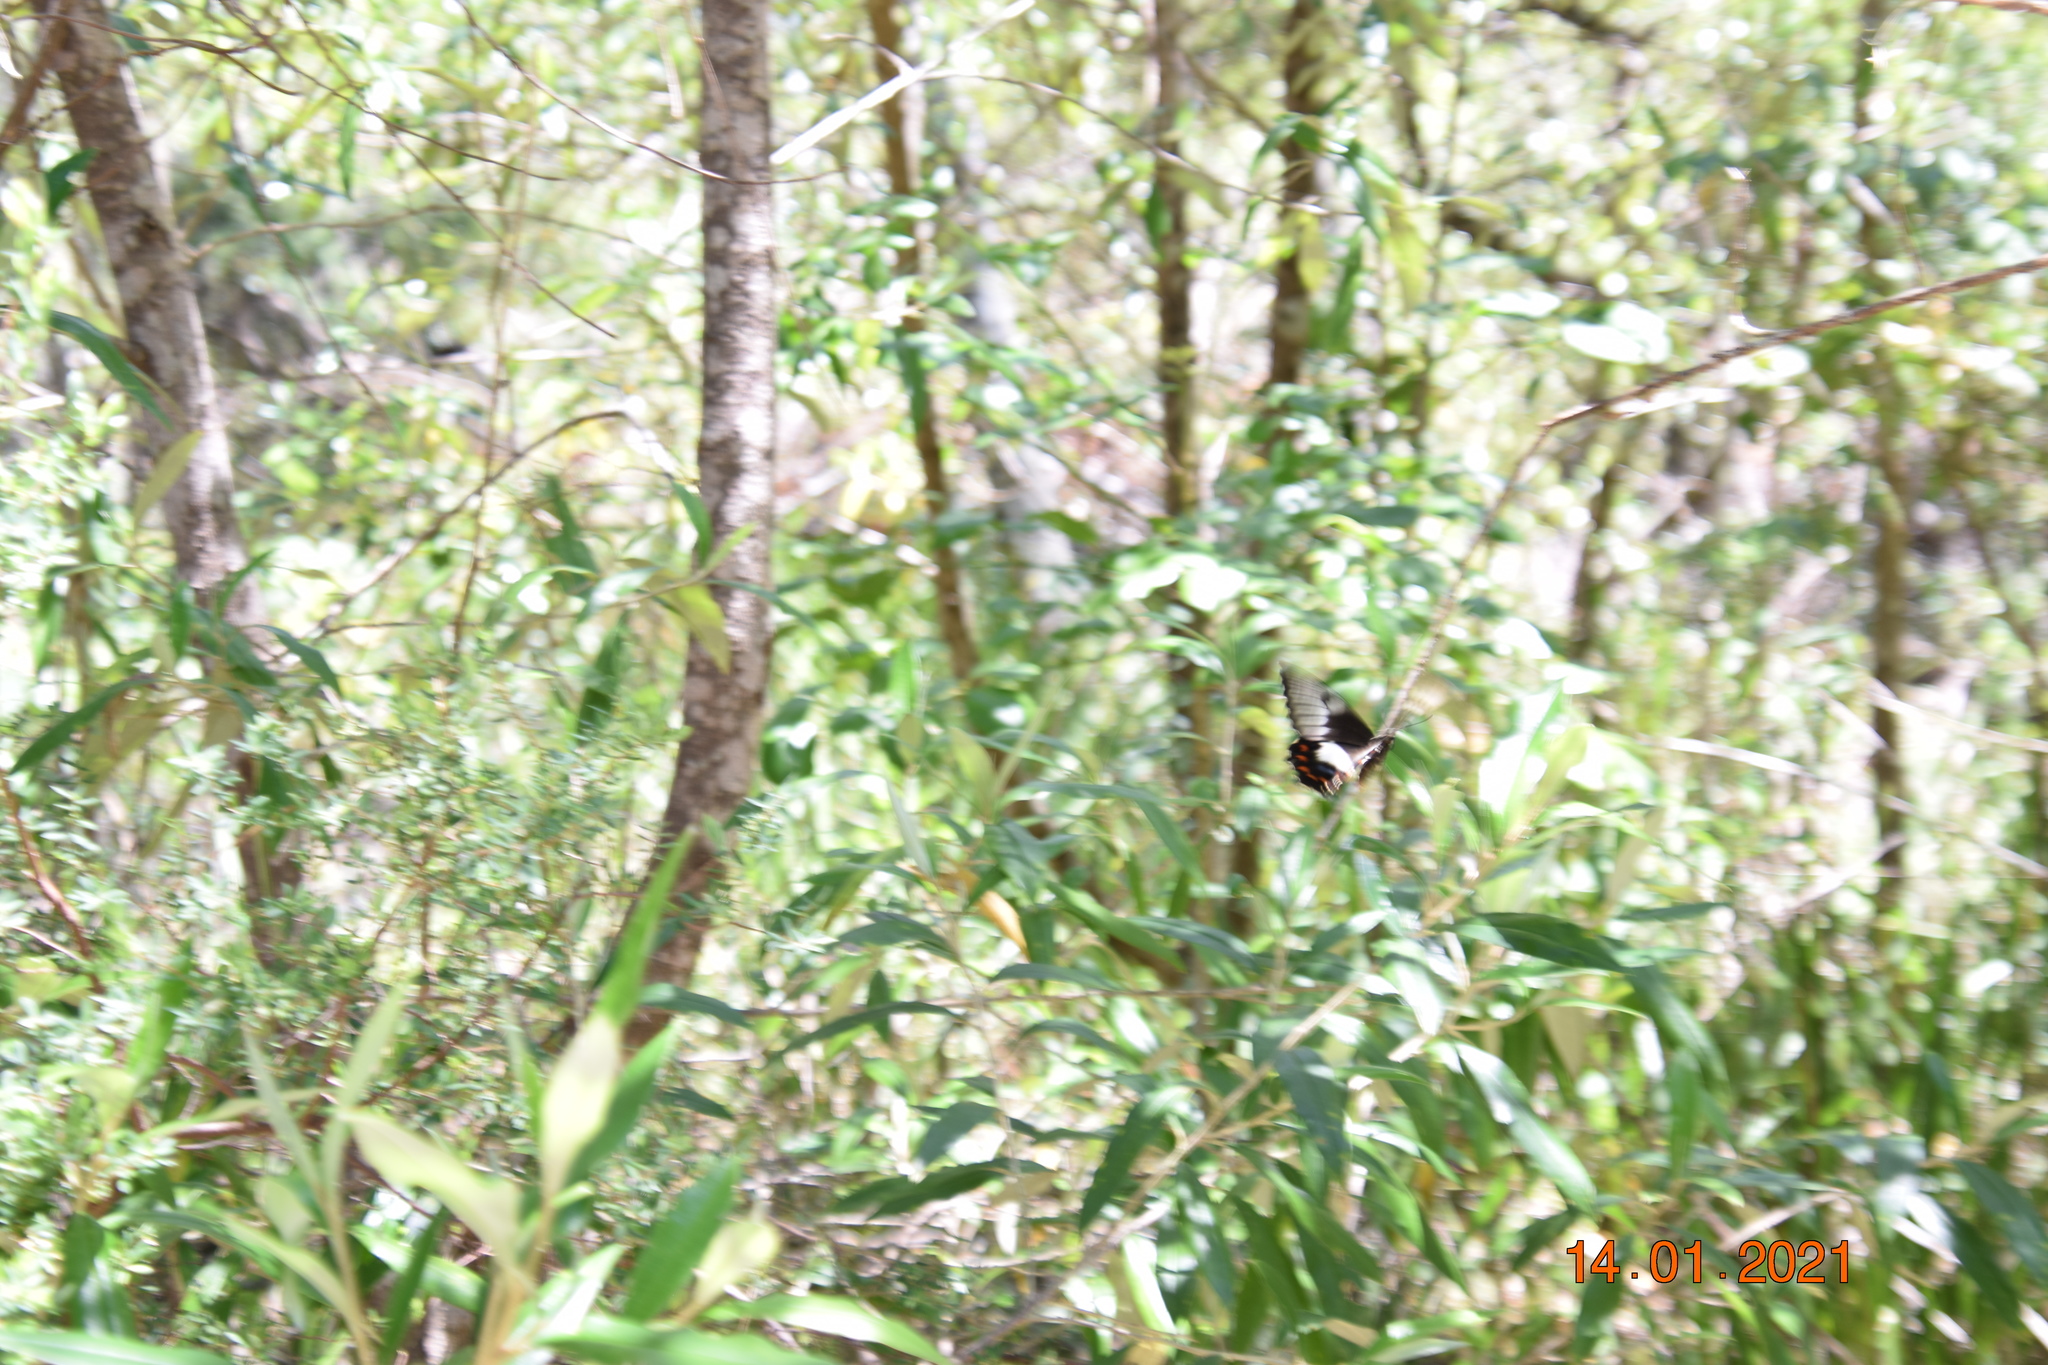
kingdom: Animalia
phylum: Arthropoda
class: Insecta
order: Lepidoptera
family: Papilionidae
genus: Papilio
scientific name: Papilio aegeus
